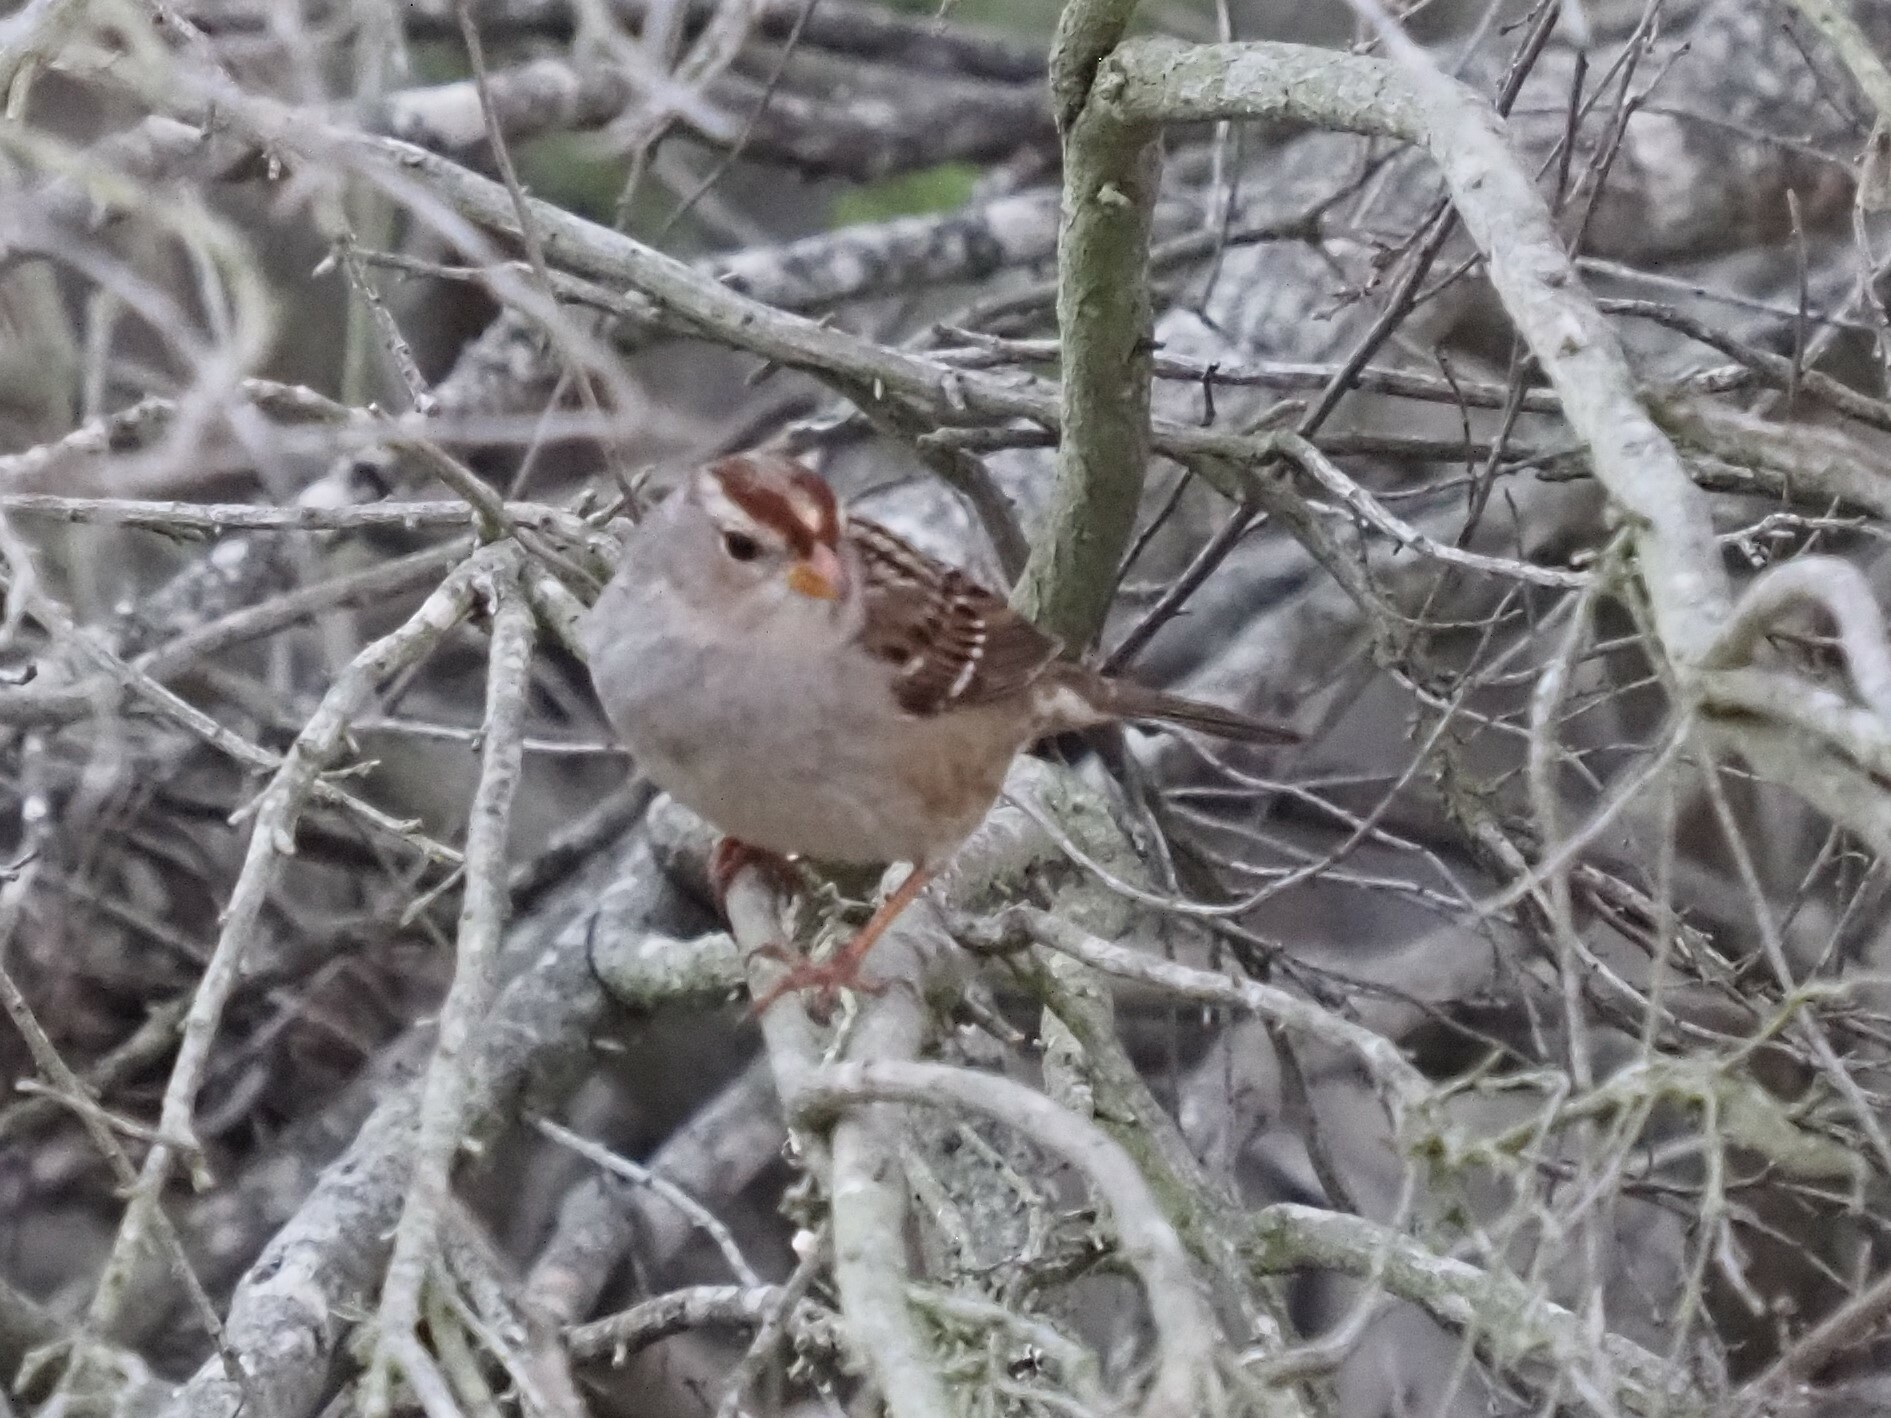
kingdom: Animalia
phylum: Chordata
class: Aves
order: Passeriformes
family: Passerellidae
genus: Zonotrichia
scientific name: Zonotrichia leucophrys
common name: White-crowned sparrow
